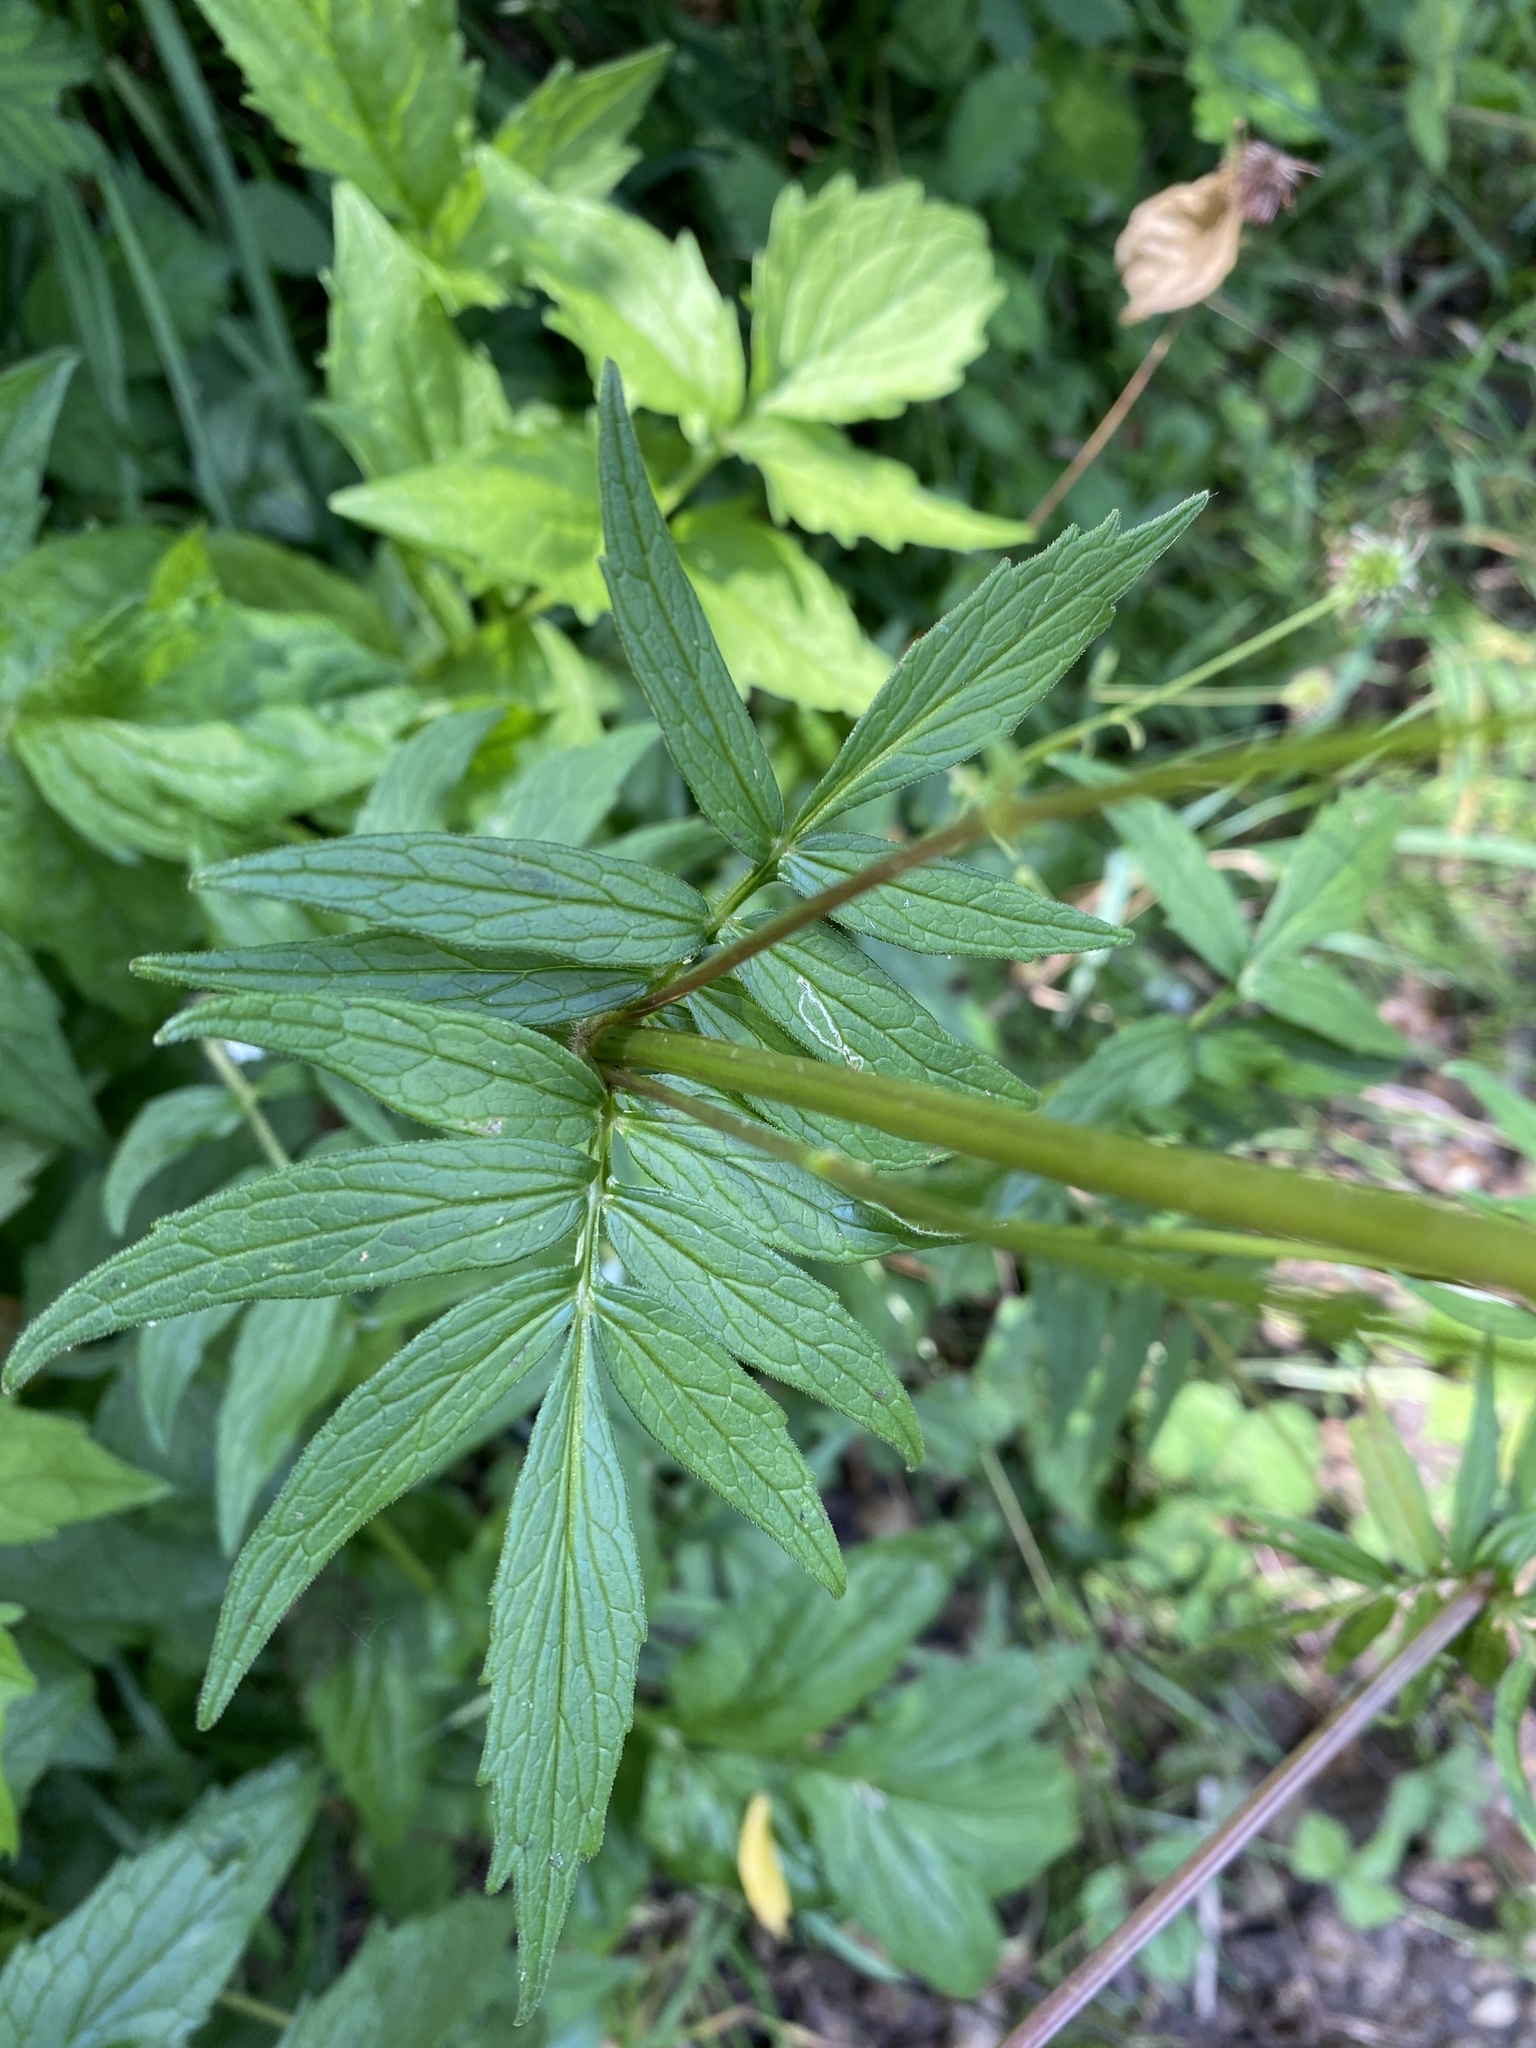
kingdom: Plantae
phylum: Tracheophyta
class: Magnoliopsida
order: Dipsacales
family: Caprifoliaceae
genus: Valeriana
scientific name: Valeriana officinalis
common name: Common valerian
